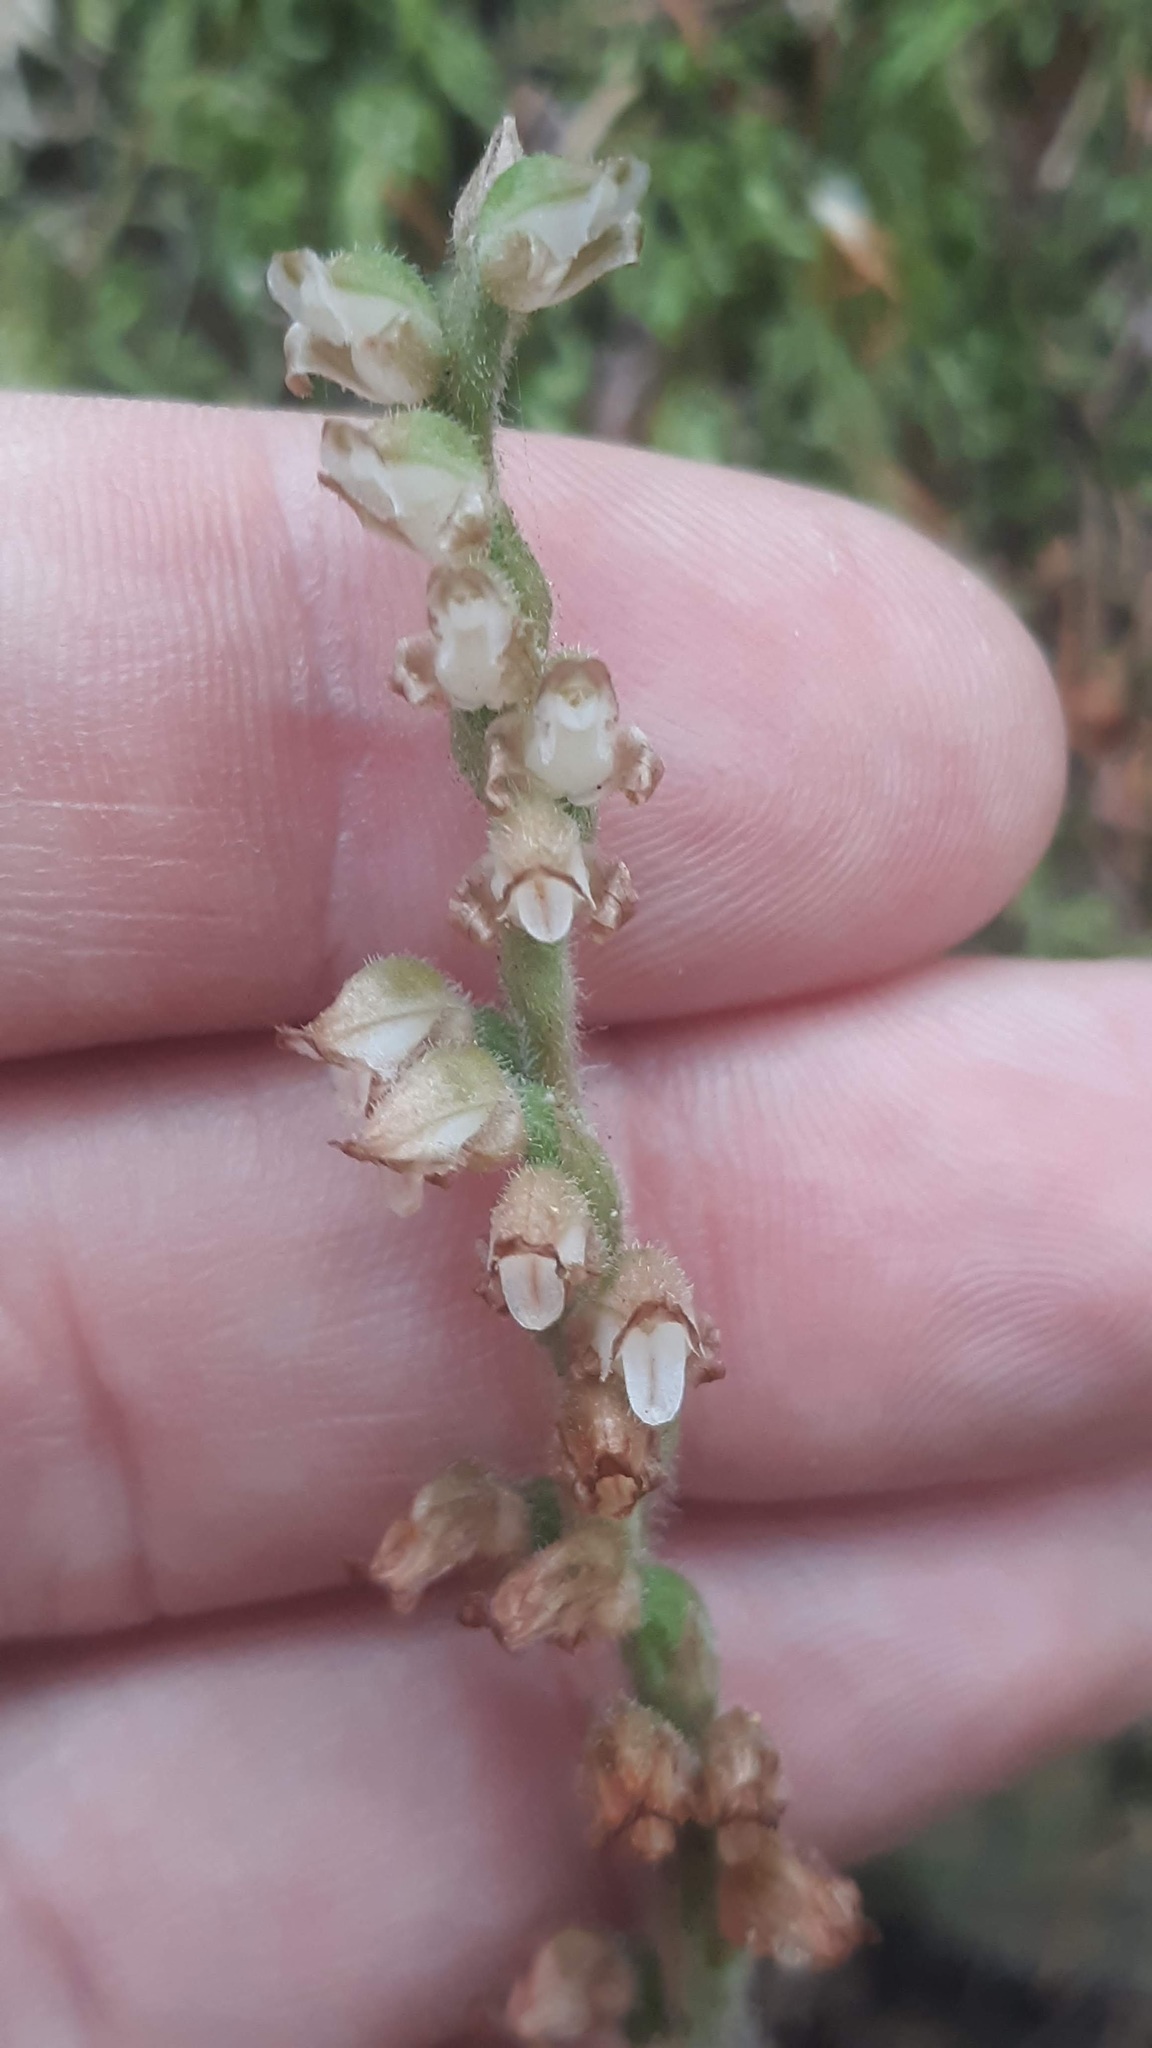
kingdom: Plantae
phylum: Tracheophyta
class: Liliopsida
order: Asparagales
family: Orchidaceae
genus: Goodyera
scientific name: Goodyera oblongifolia
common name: Giant rattlesnake-plantain
